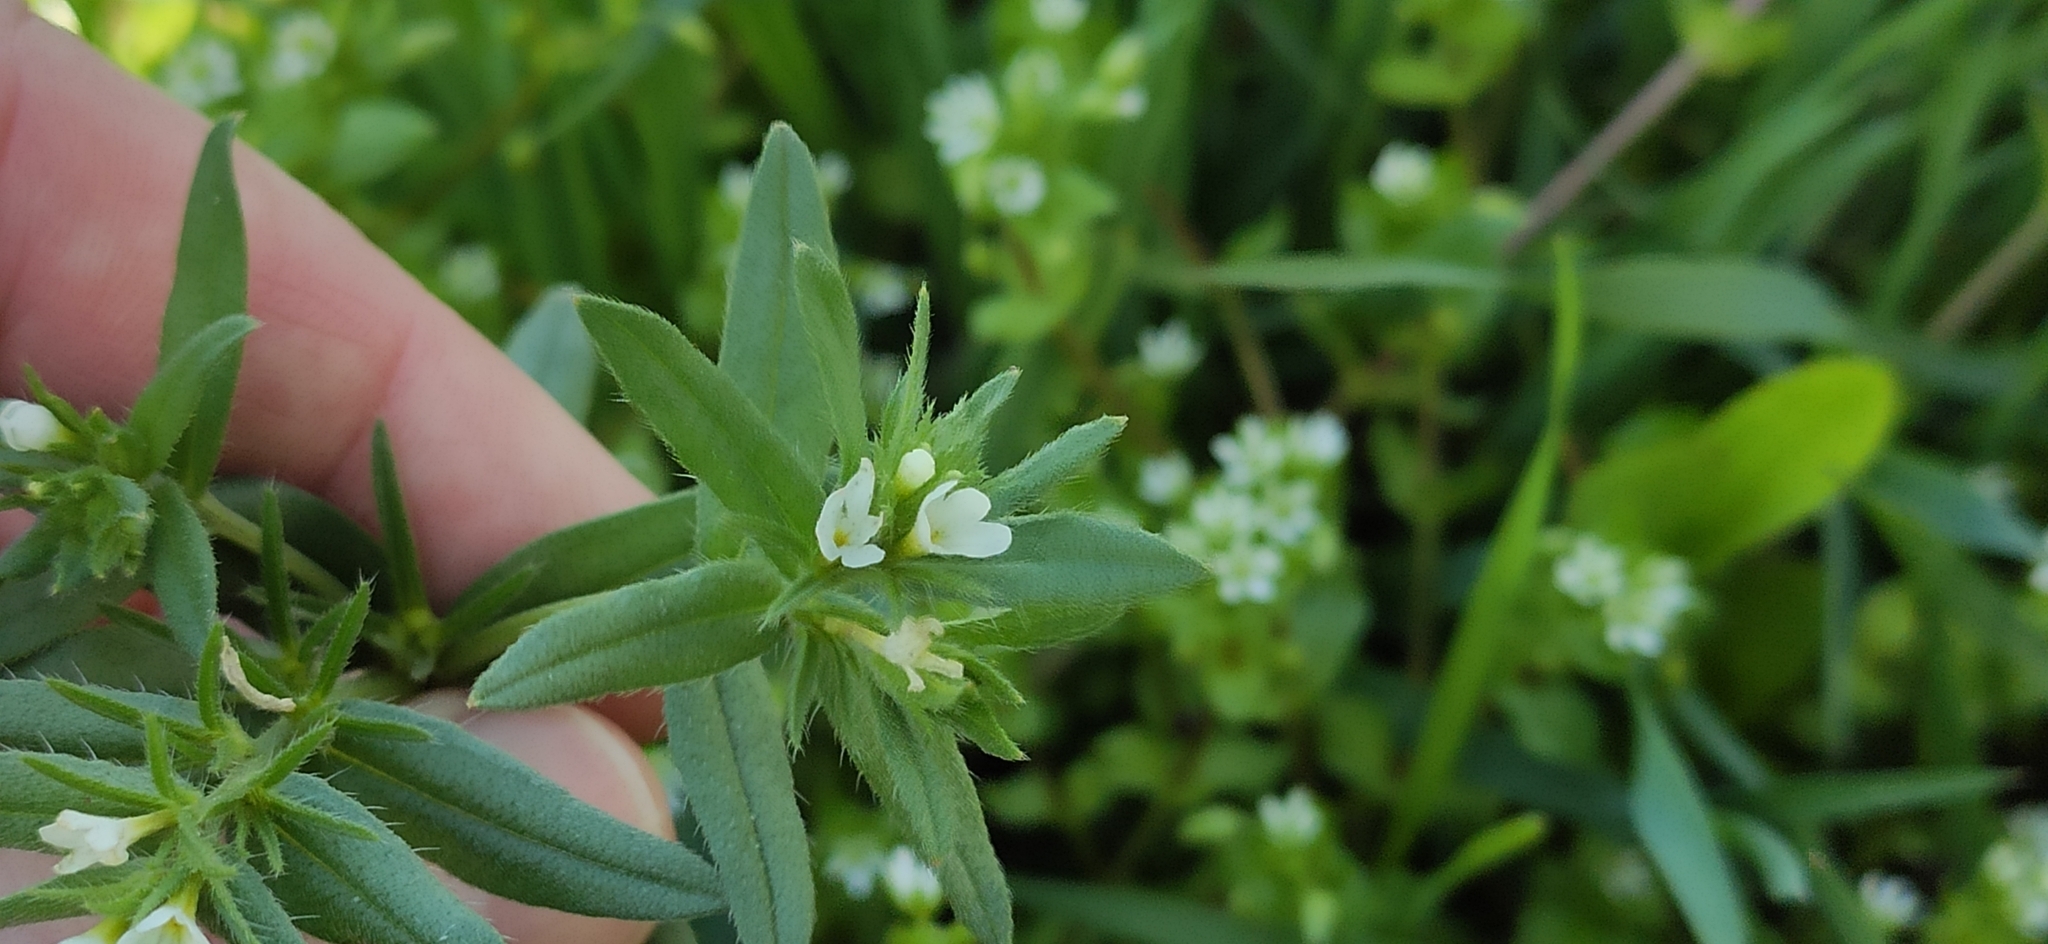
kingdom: Plantae
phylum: Tracheophyta
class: Magnoliopsida
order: Boraginales
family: Boraginaceae
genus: Buglossoides
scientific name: Buglossoides arvensis
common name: Corn gromwell
